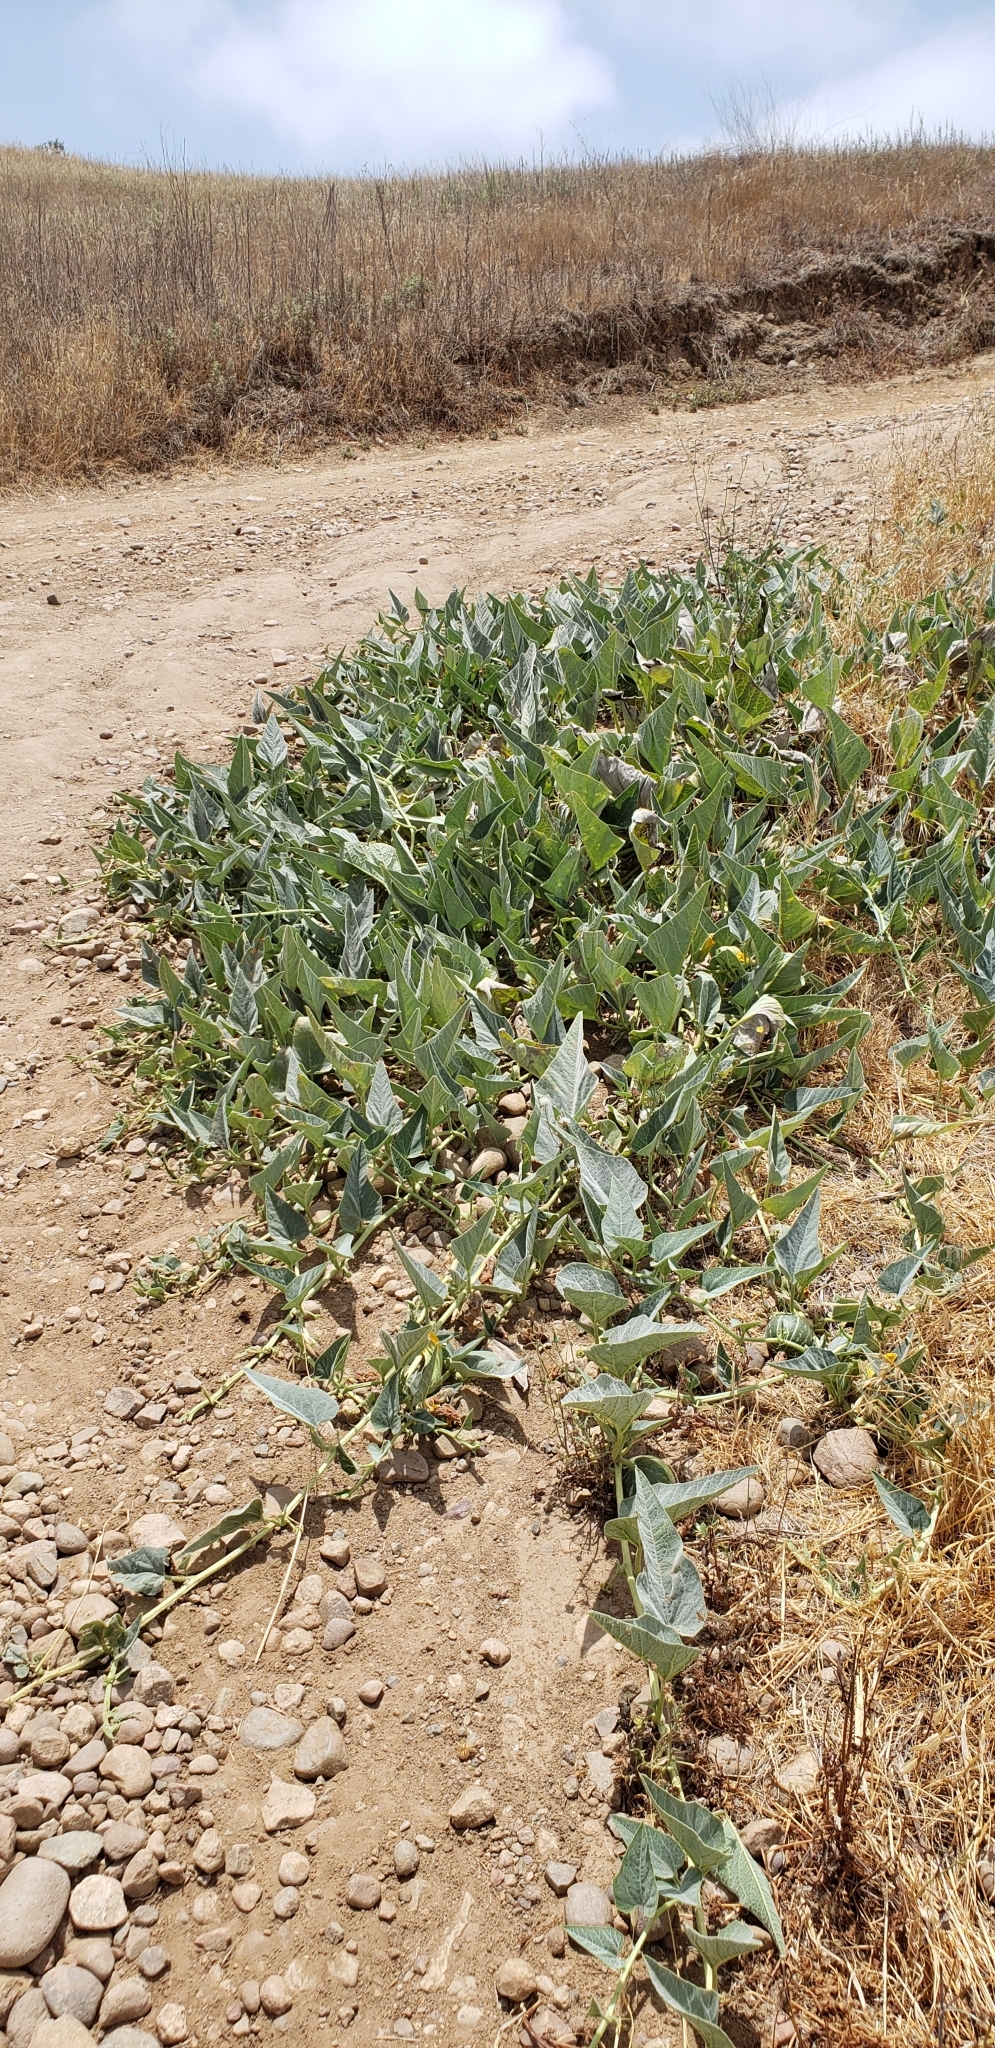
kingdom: Plantae
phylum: Tracheophyta
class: Magnoliopsida
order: Cucurbitales
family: Cucurbitaceae
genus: Cucurbita
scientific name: Cucurbita foetidissima
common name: Buffalo gourd
